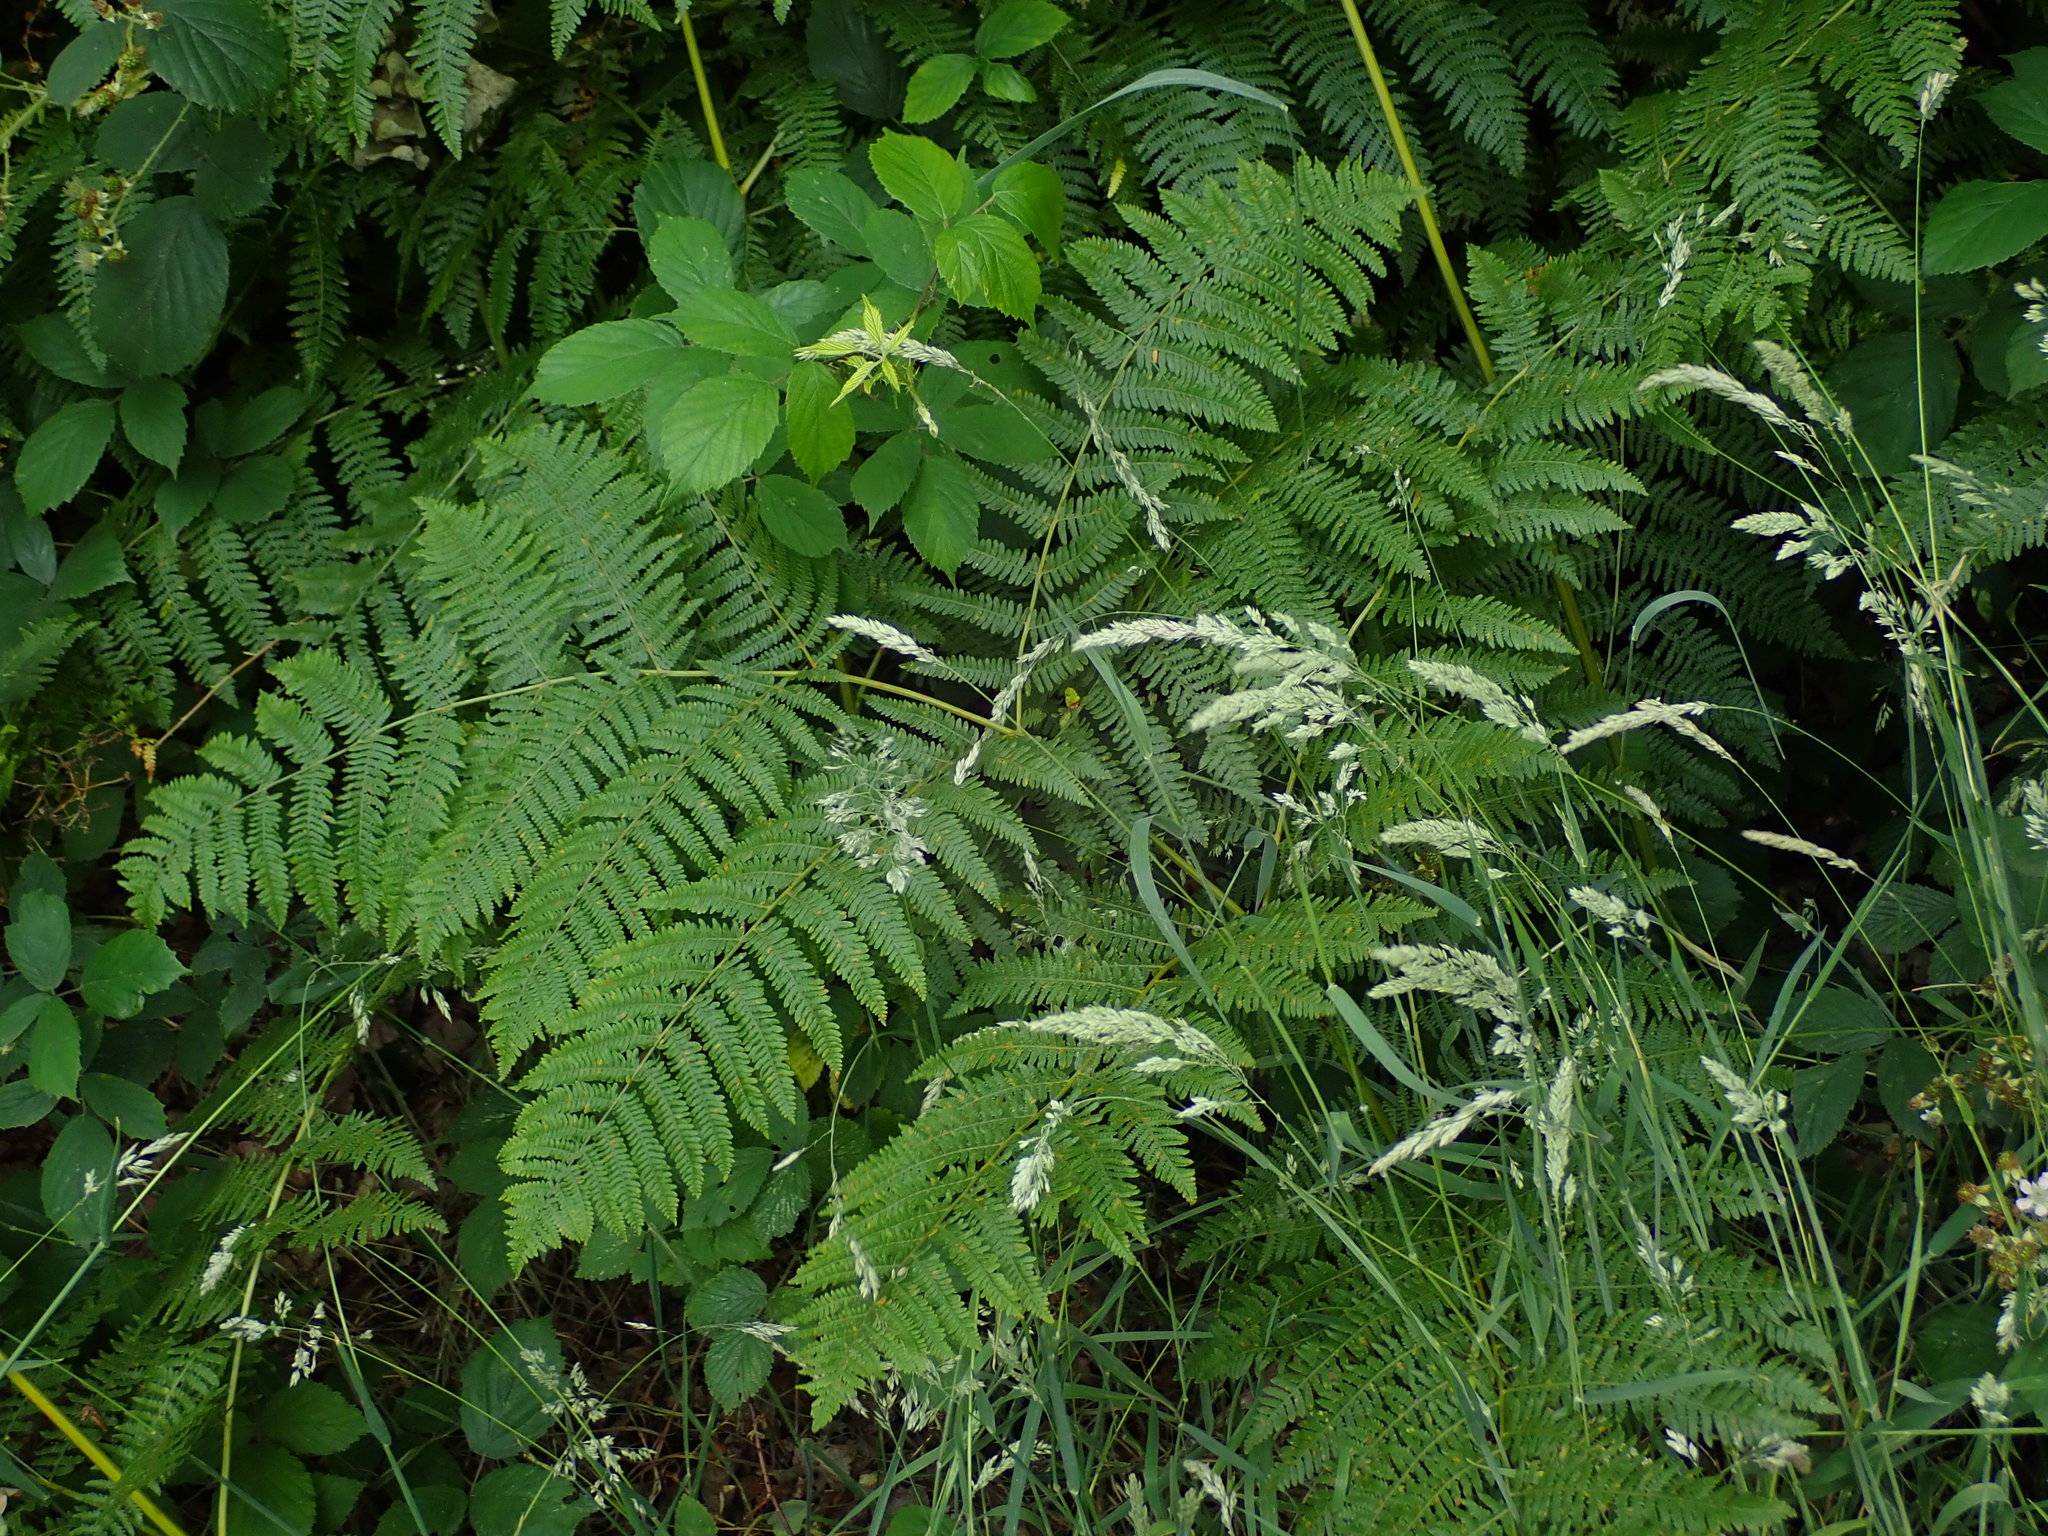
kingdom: Plantae
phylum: Tracheophyta
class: Polypodiopsida
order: Polypodiales
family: Dennstaedtiaceae
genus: Pteridium
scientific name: Pteridium aquilinum
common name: Bracken
